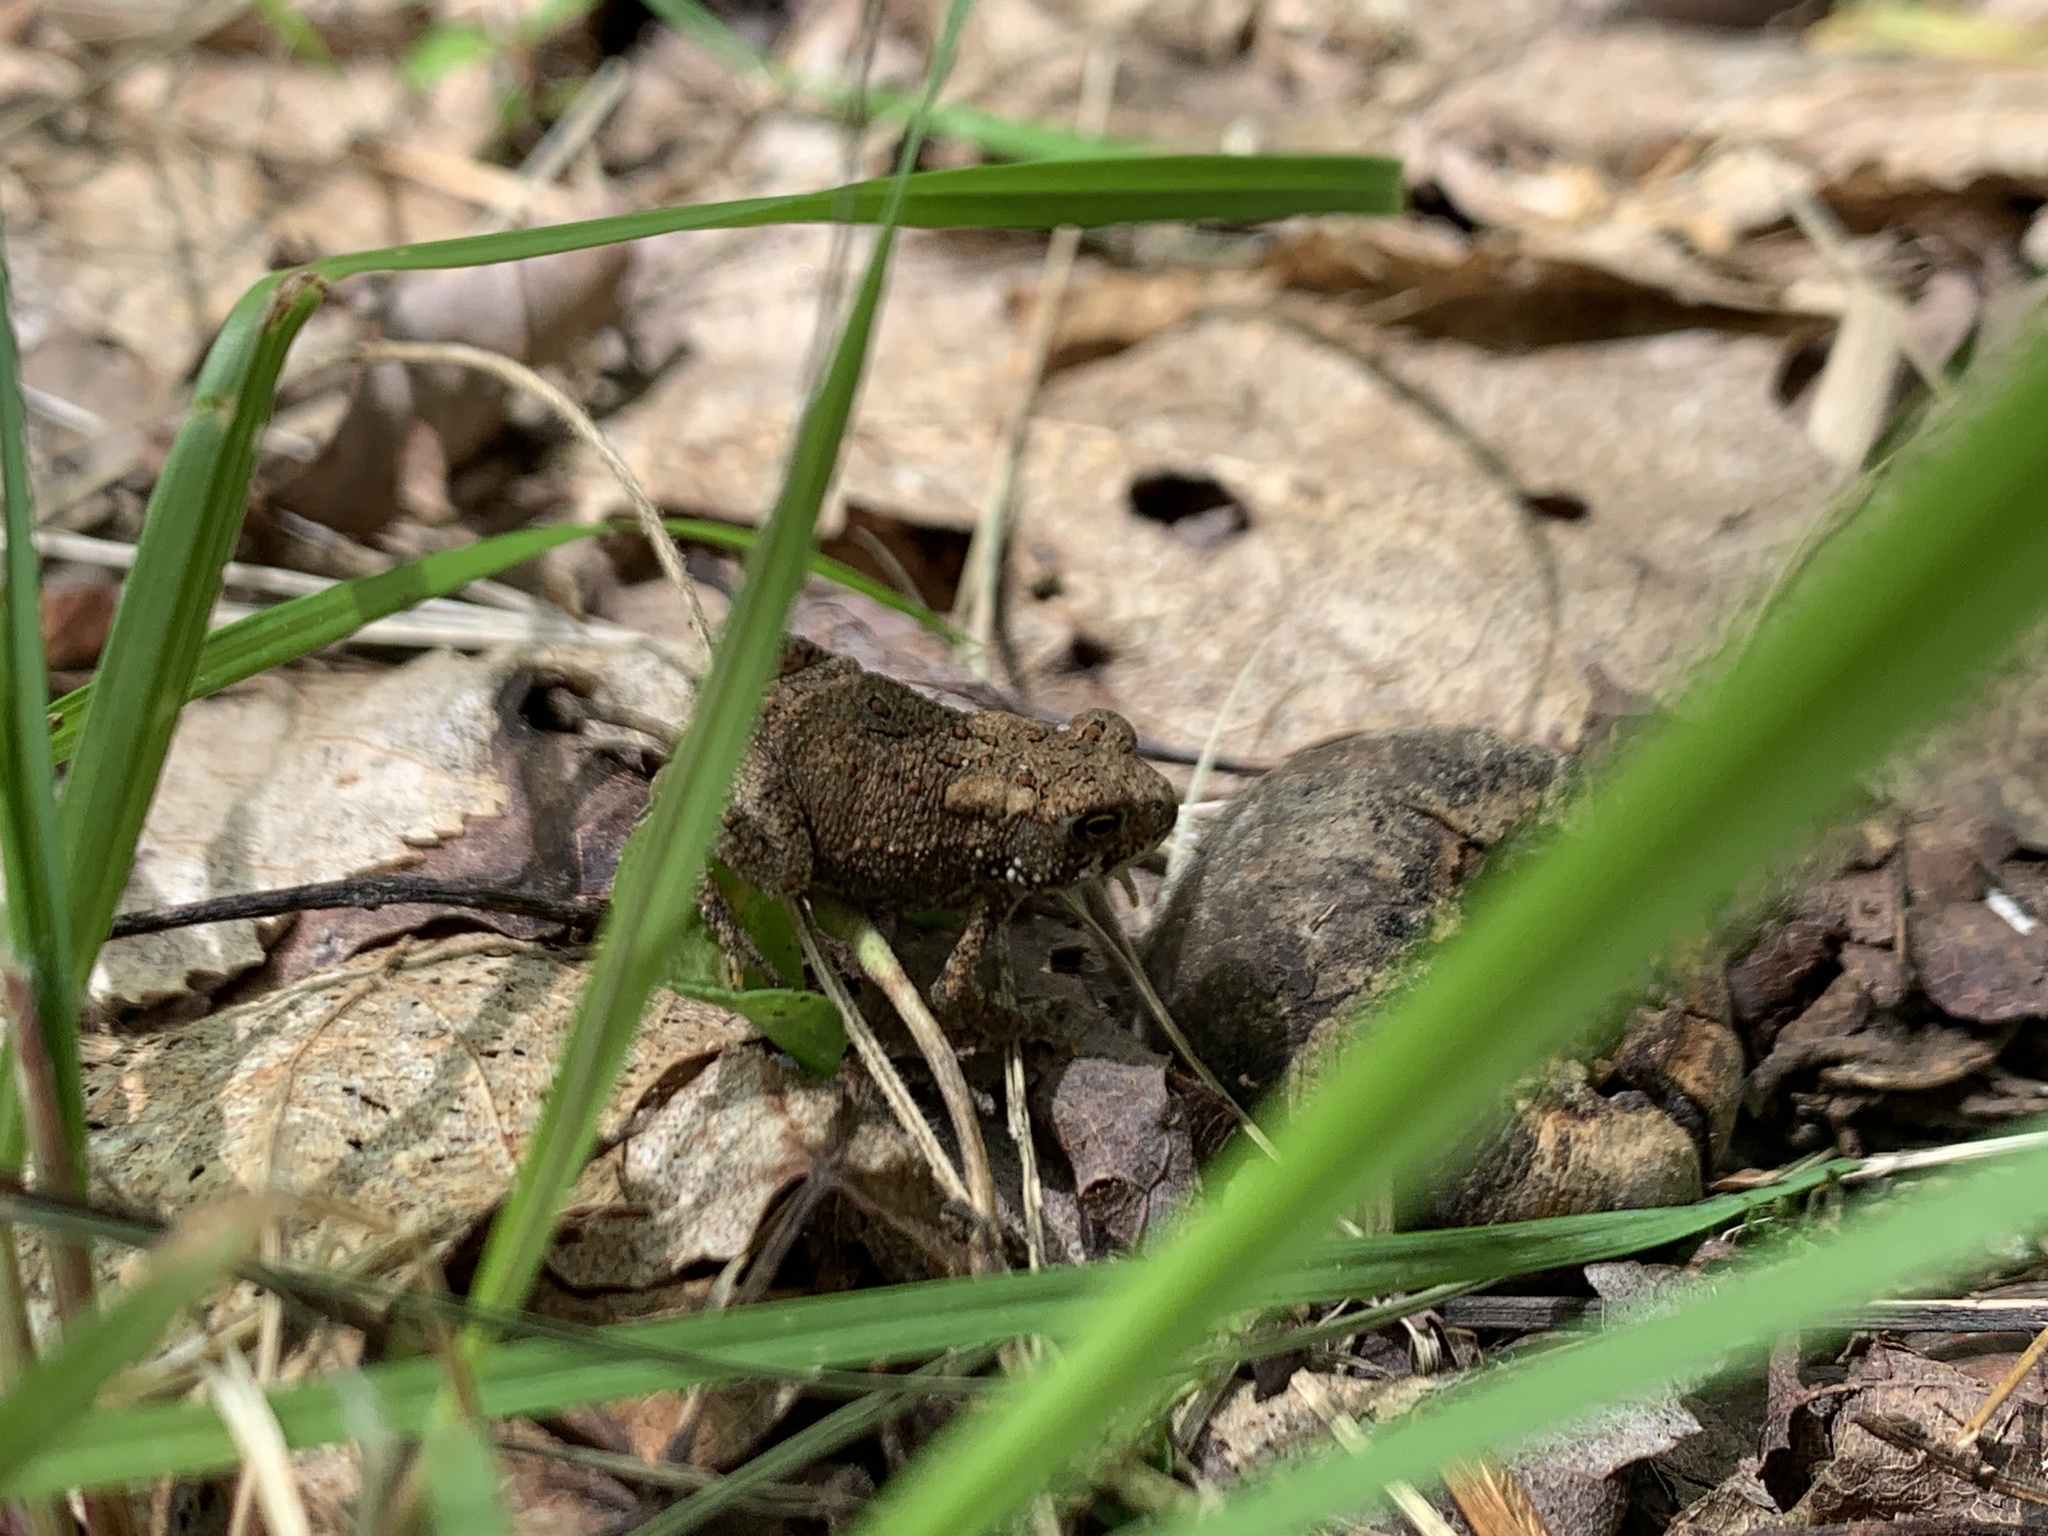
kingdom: Animalia
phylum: Chordata
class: Amphibia
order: Anura
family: Bufonidae
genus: Anaxyrus
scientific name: Anaxyrus americanus
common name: American toad
